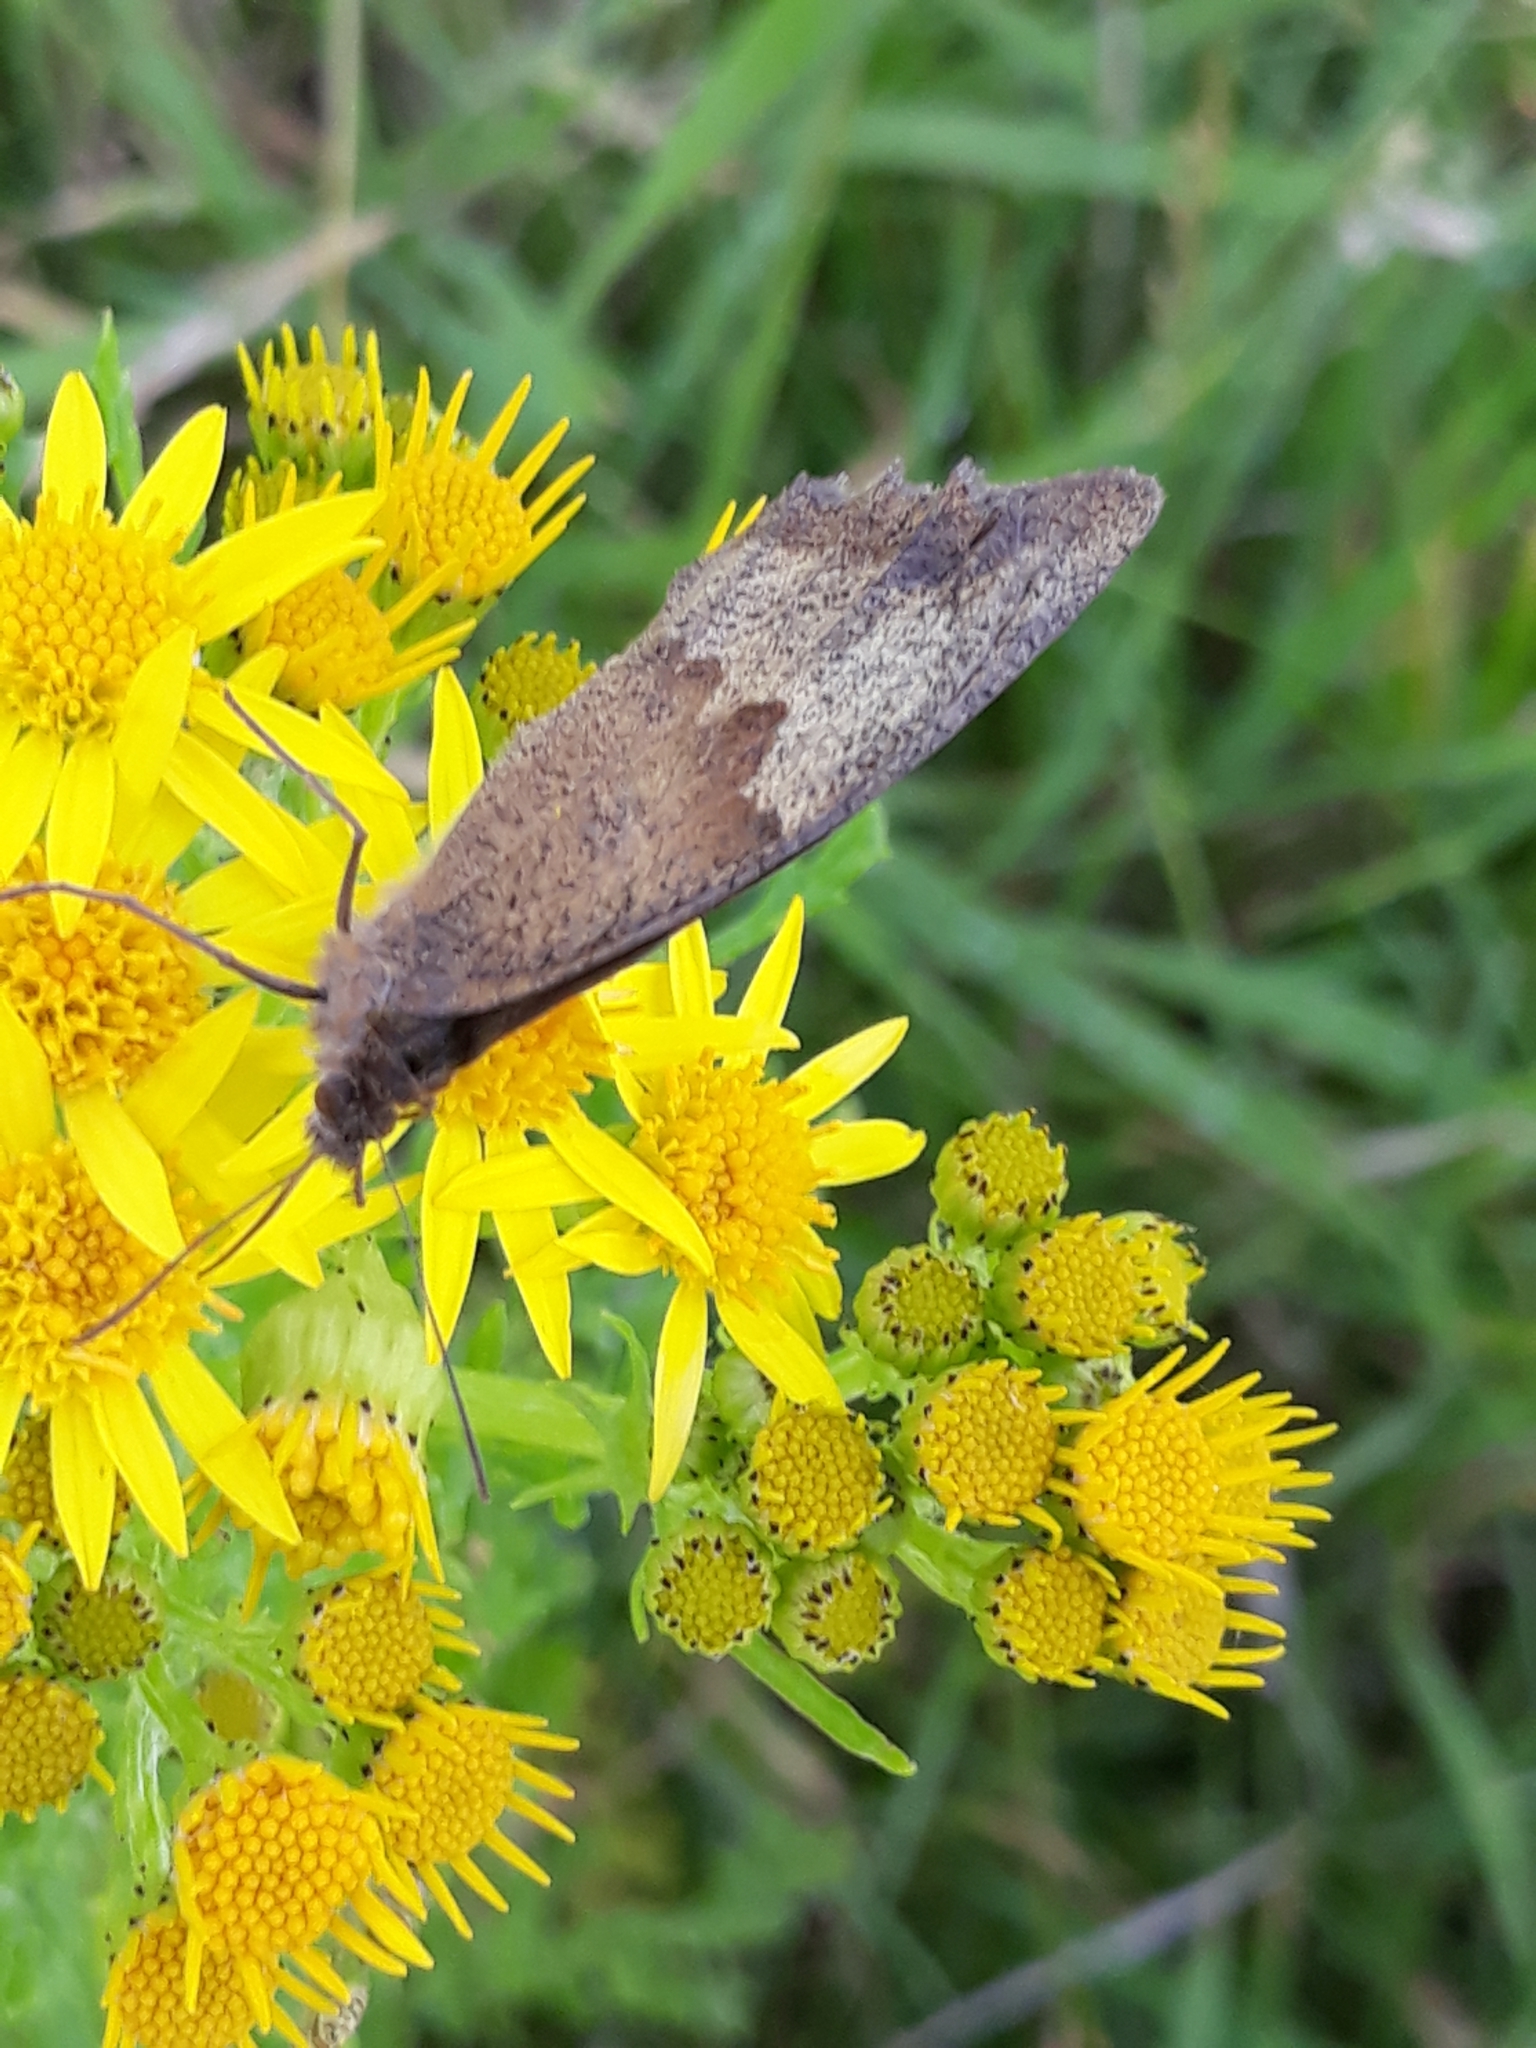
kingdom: Animalia
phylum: Arthropoda
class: Insecta
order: Lepidoptera
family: Nymphalidae
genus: Maniola
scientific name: Maniola jurtina
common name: Meadow brown
